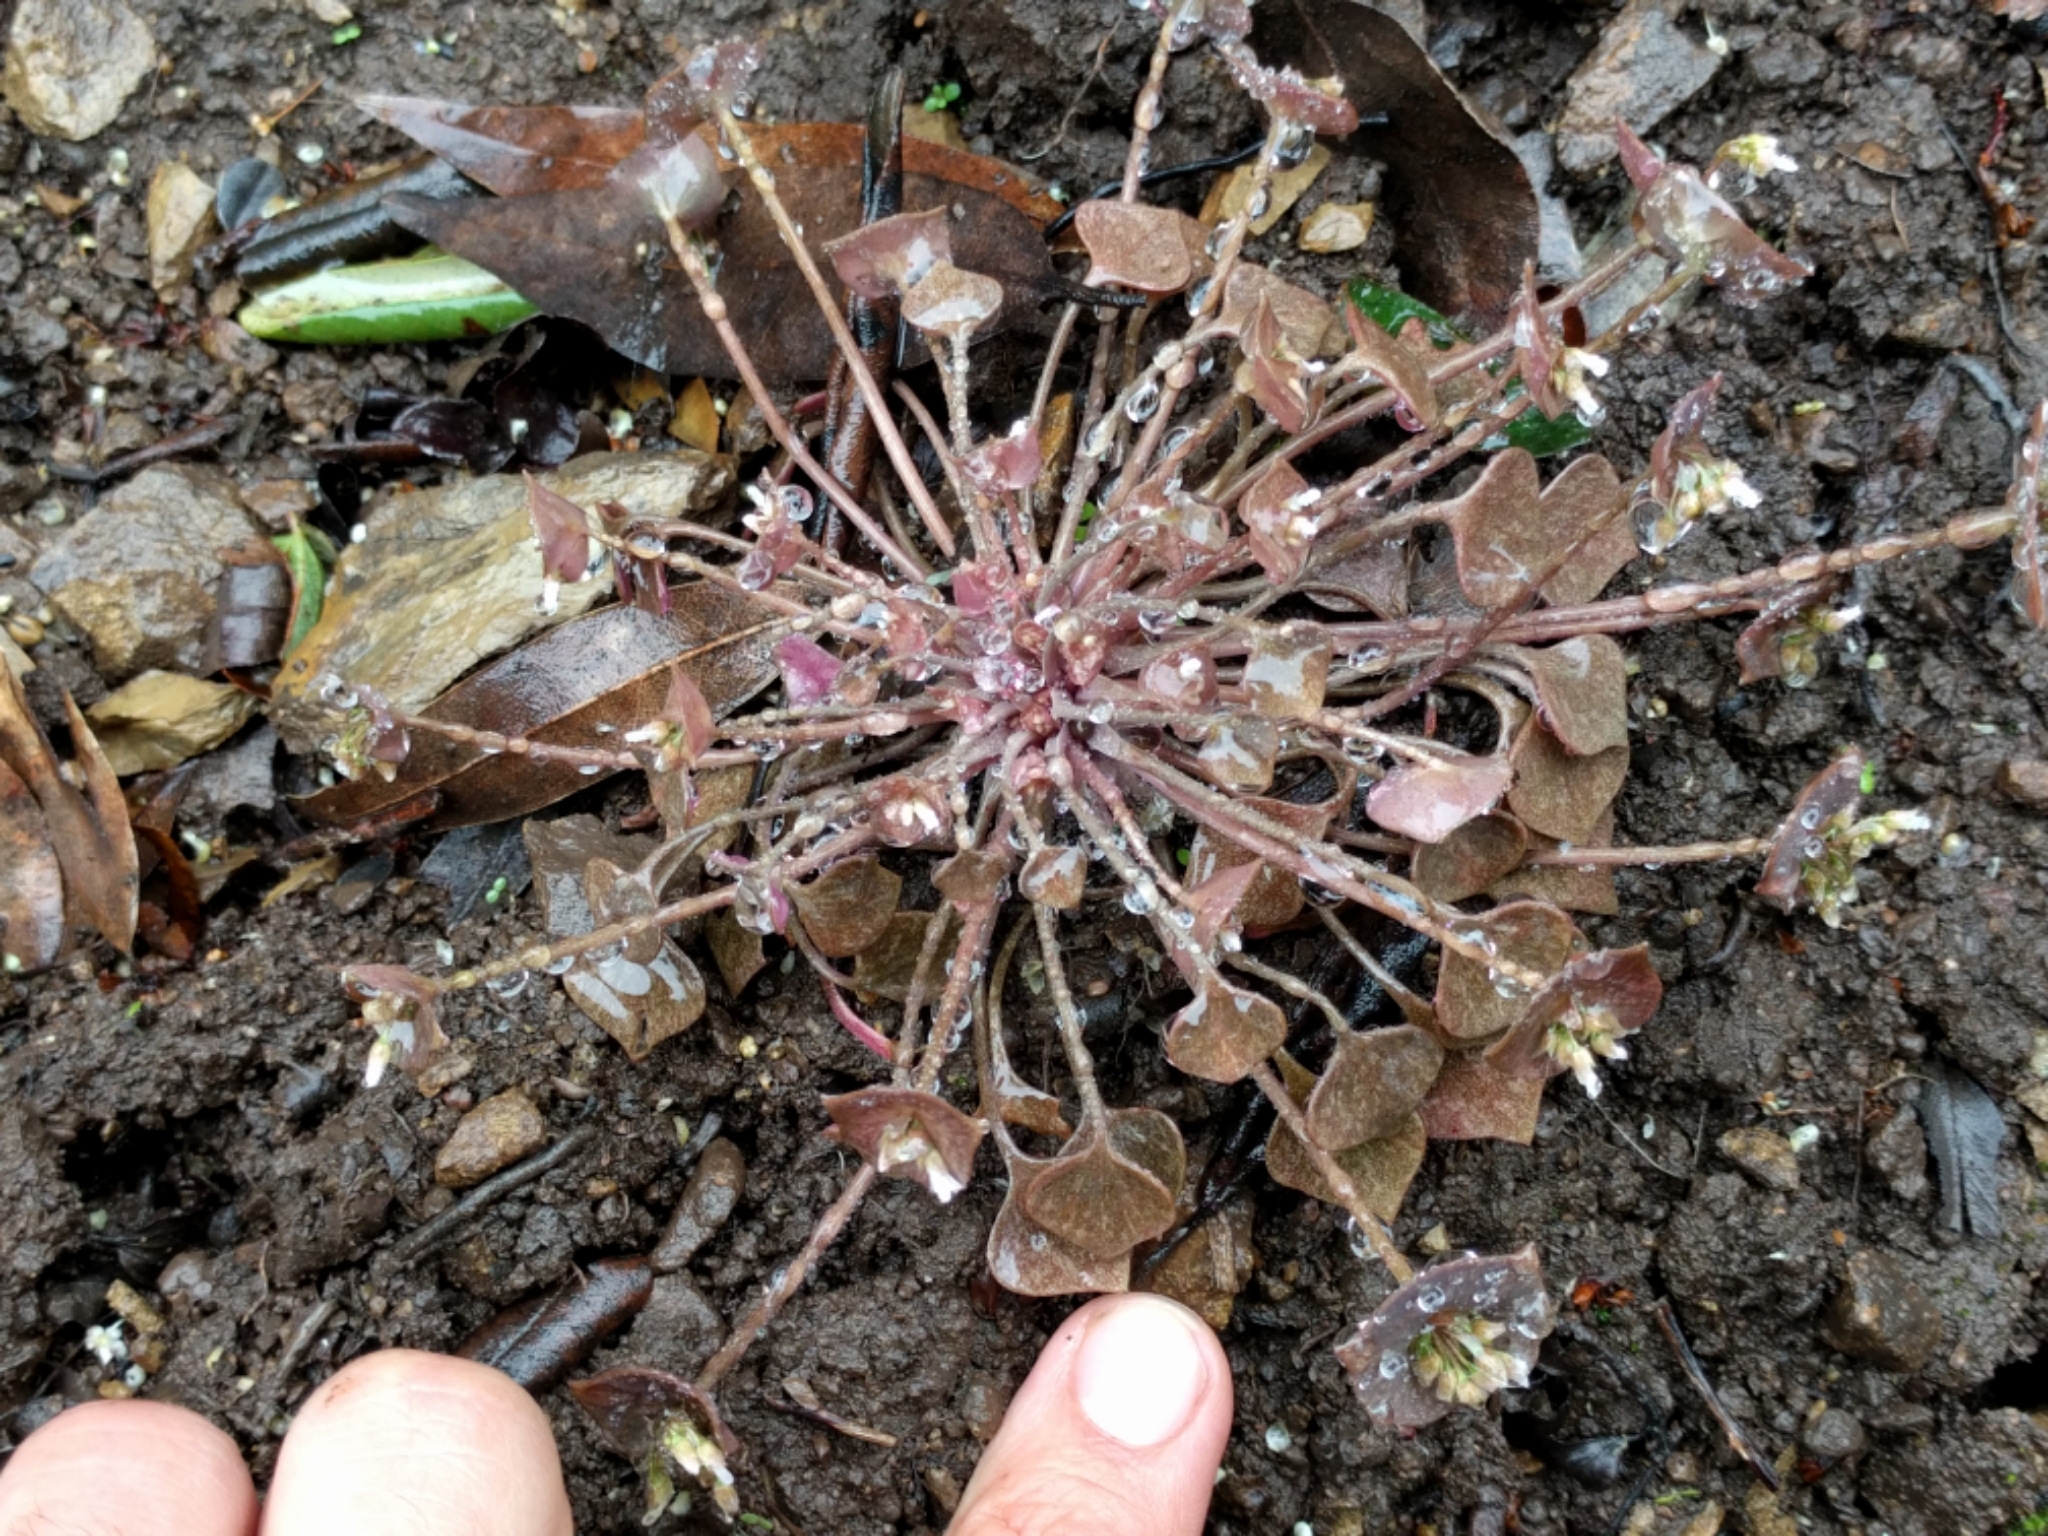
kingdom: Plantae
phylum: Tracheophyta
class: Magnoliopsida
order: Caryophyllales
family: Montiaceae
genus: Claytonia
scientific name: Claytonia rubra
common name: Erubescent miner's-lettuce
